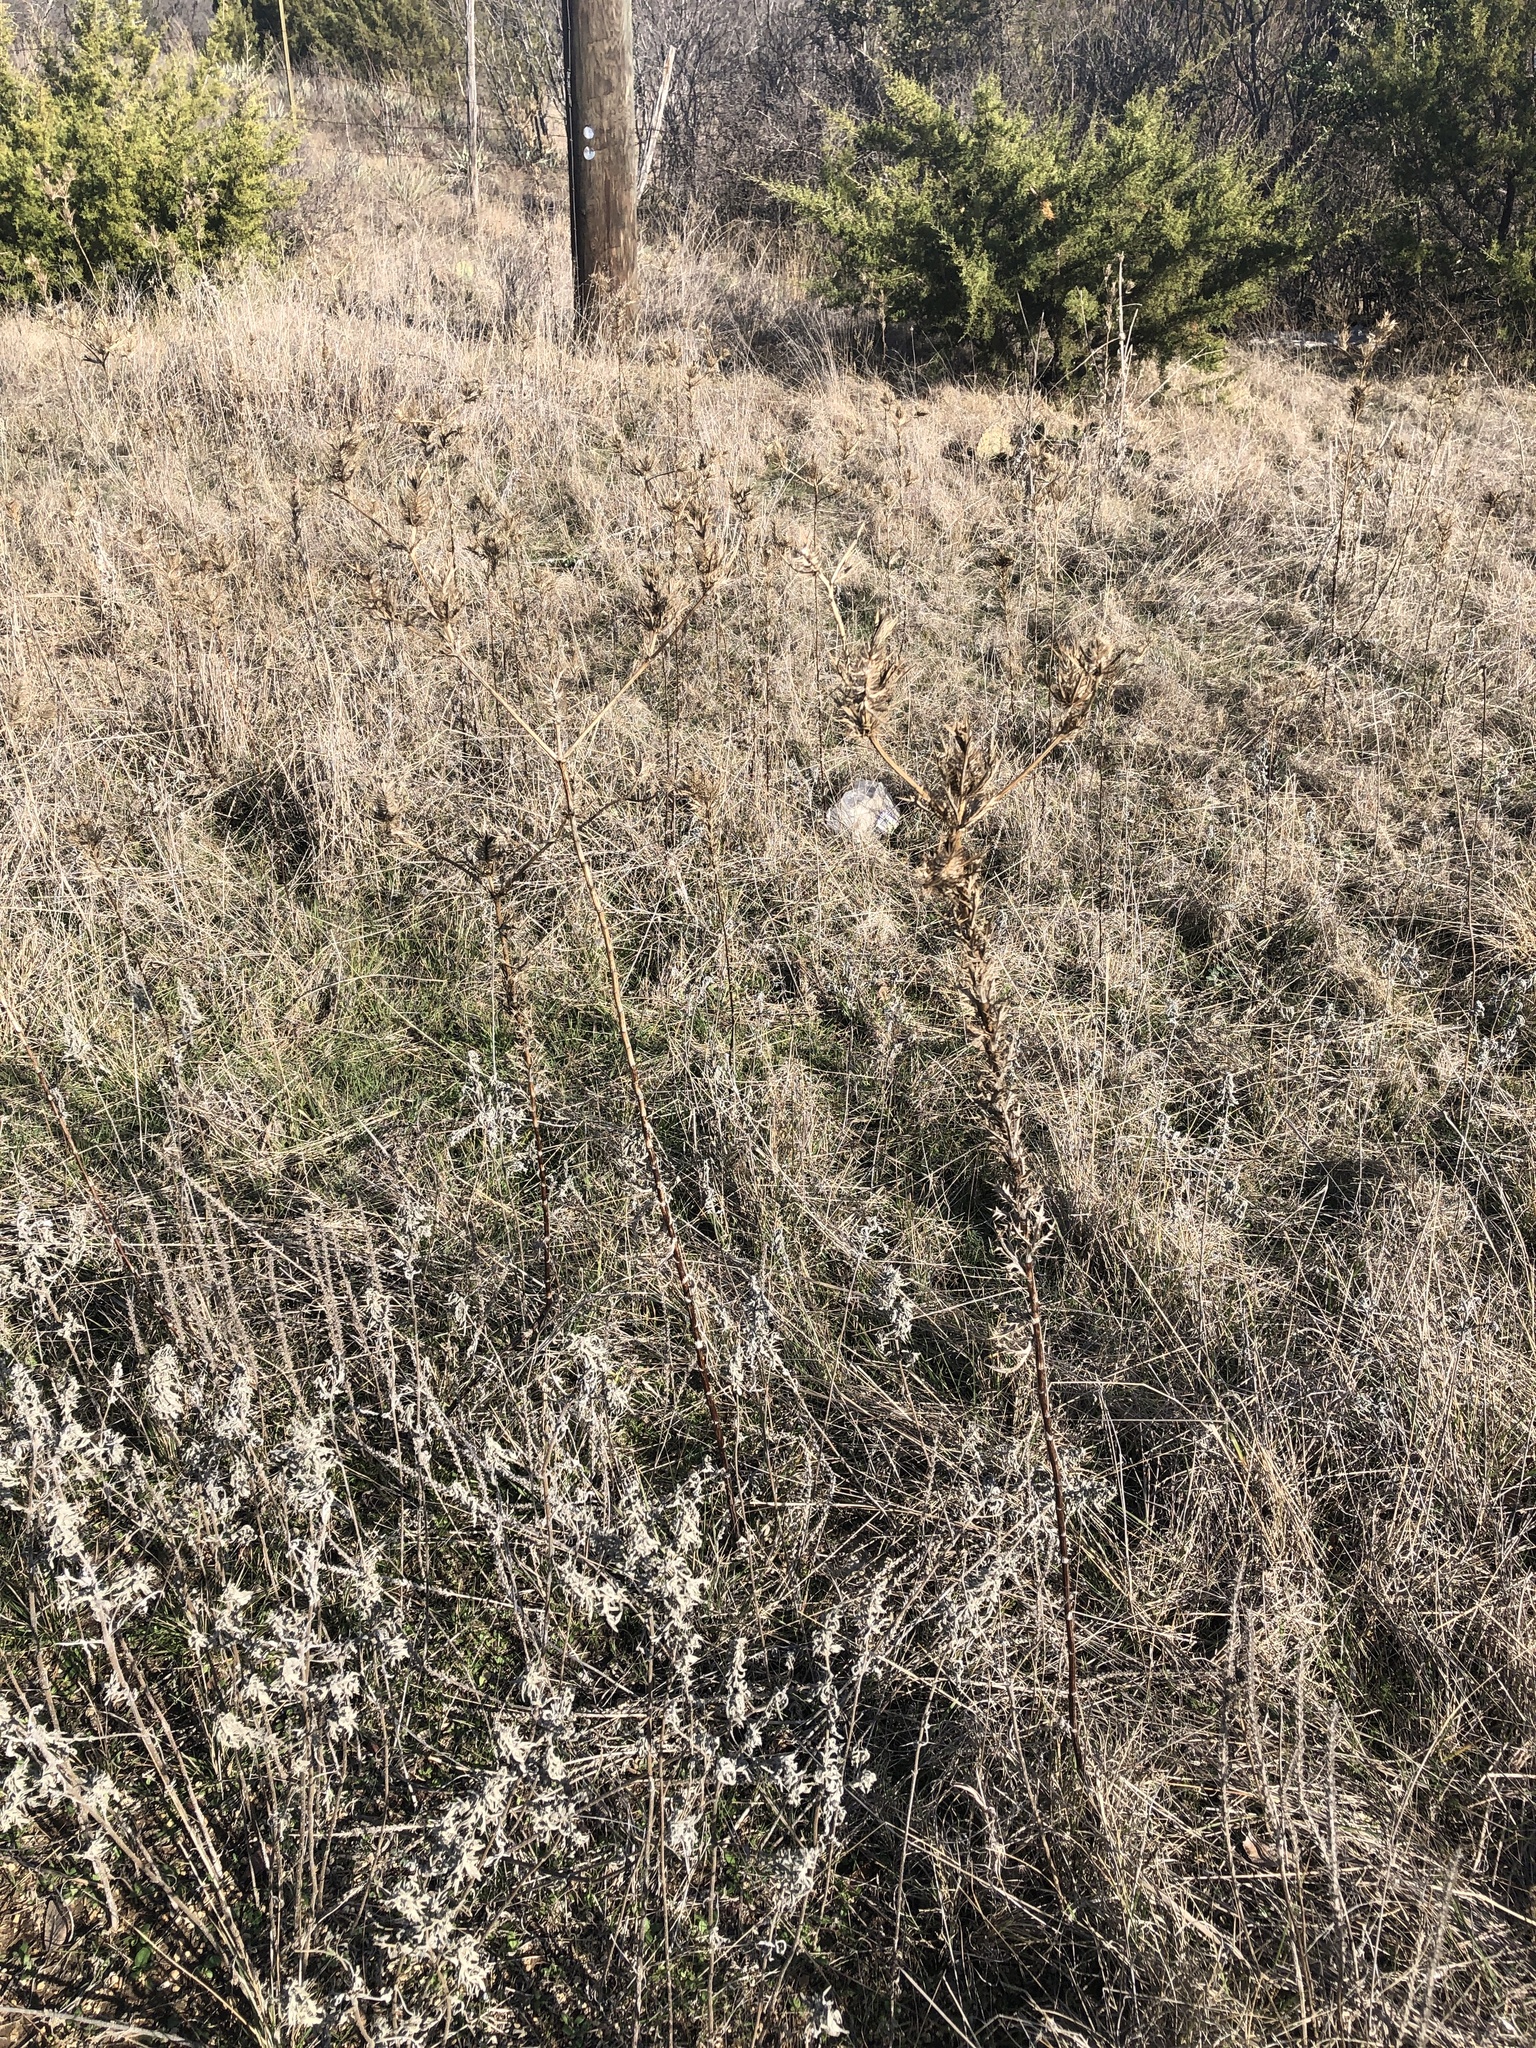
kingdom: Plantae
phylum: Tracheophyta
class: Magnoliopsida
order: Apiales
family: Apiaceae
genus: Eryngium
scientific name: Eryngium leavenworthii
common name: Leavenworth's eryngo
